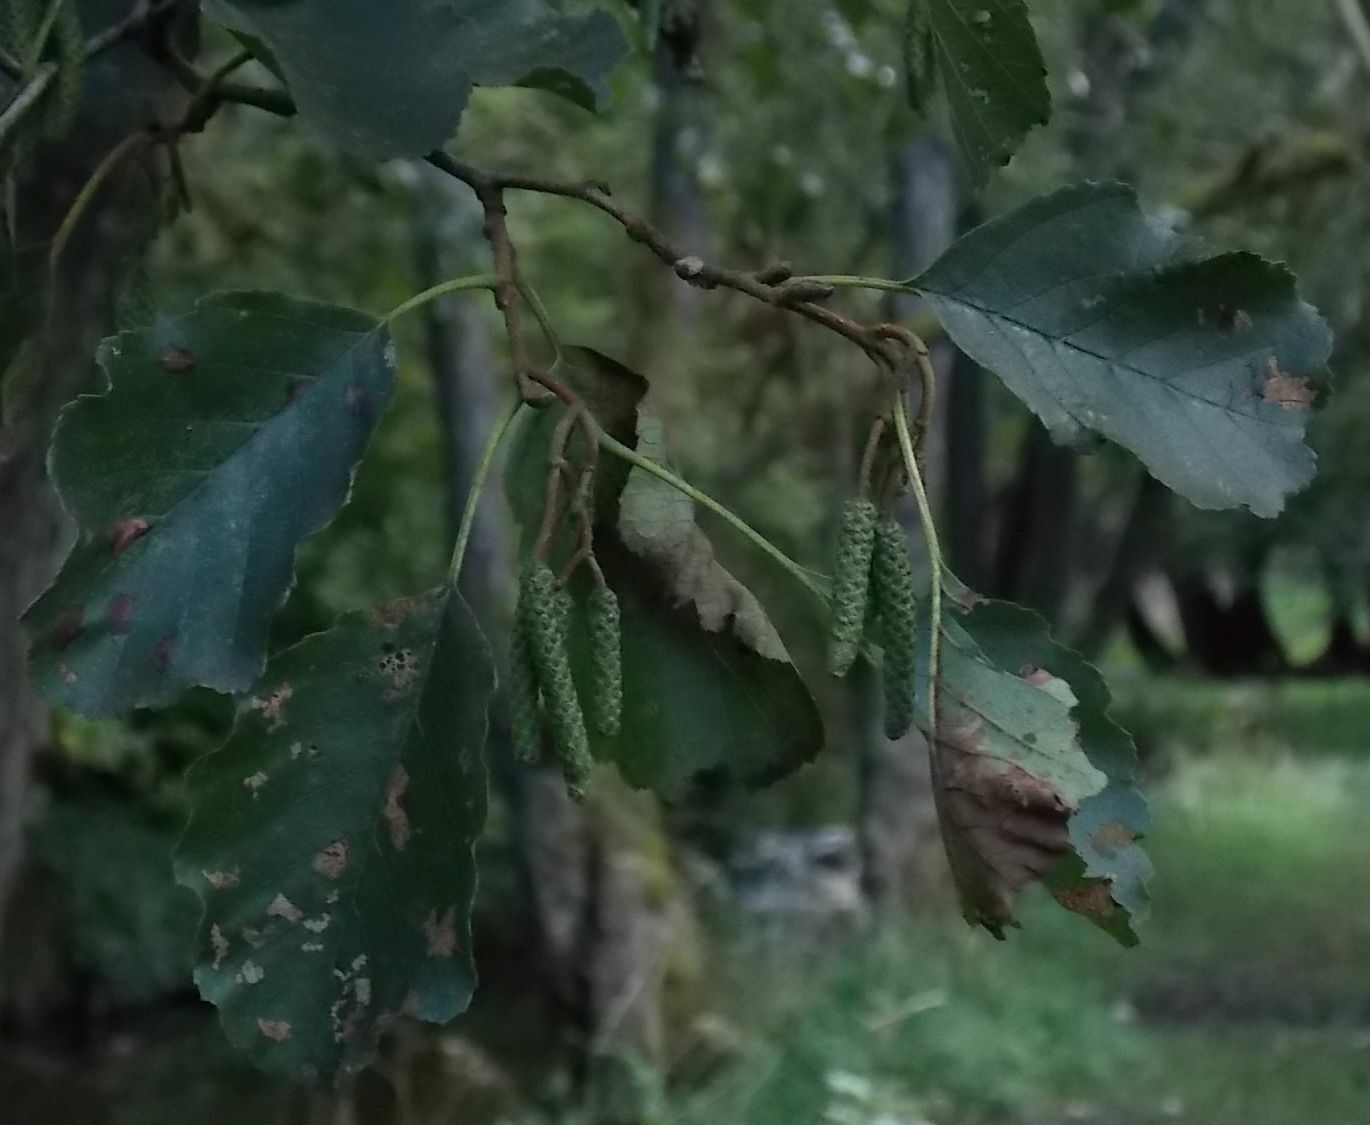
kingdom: Plantae
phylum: Tracheophyta
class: Magnoliopsida
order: Fagales
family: Betulaceae
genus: Alnus
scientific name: Alnus glutinosa
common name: Black alder
